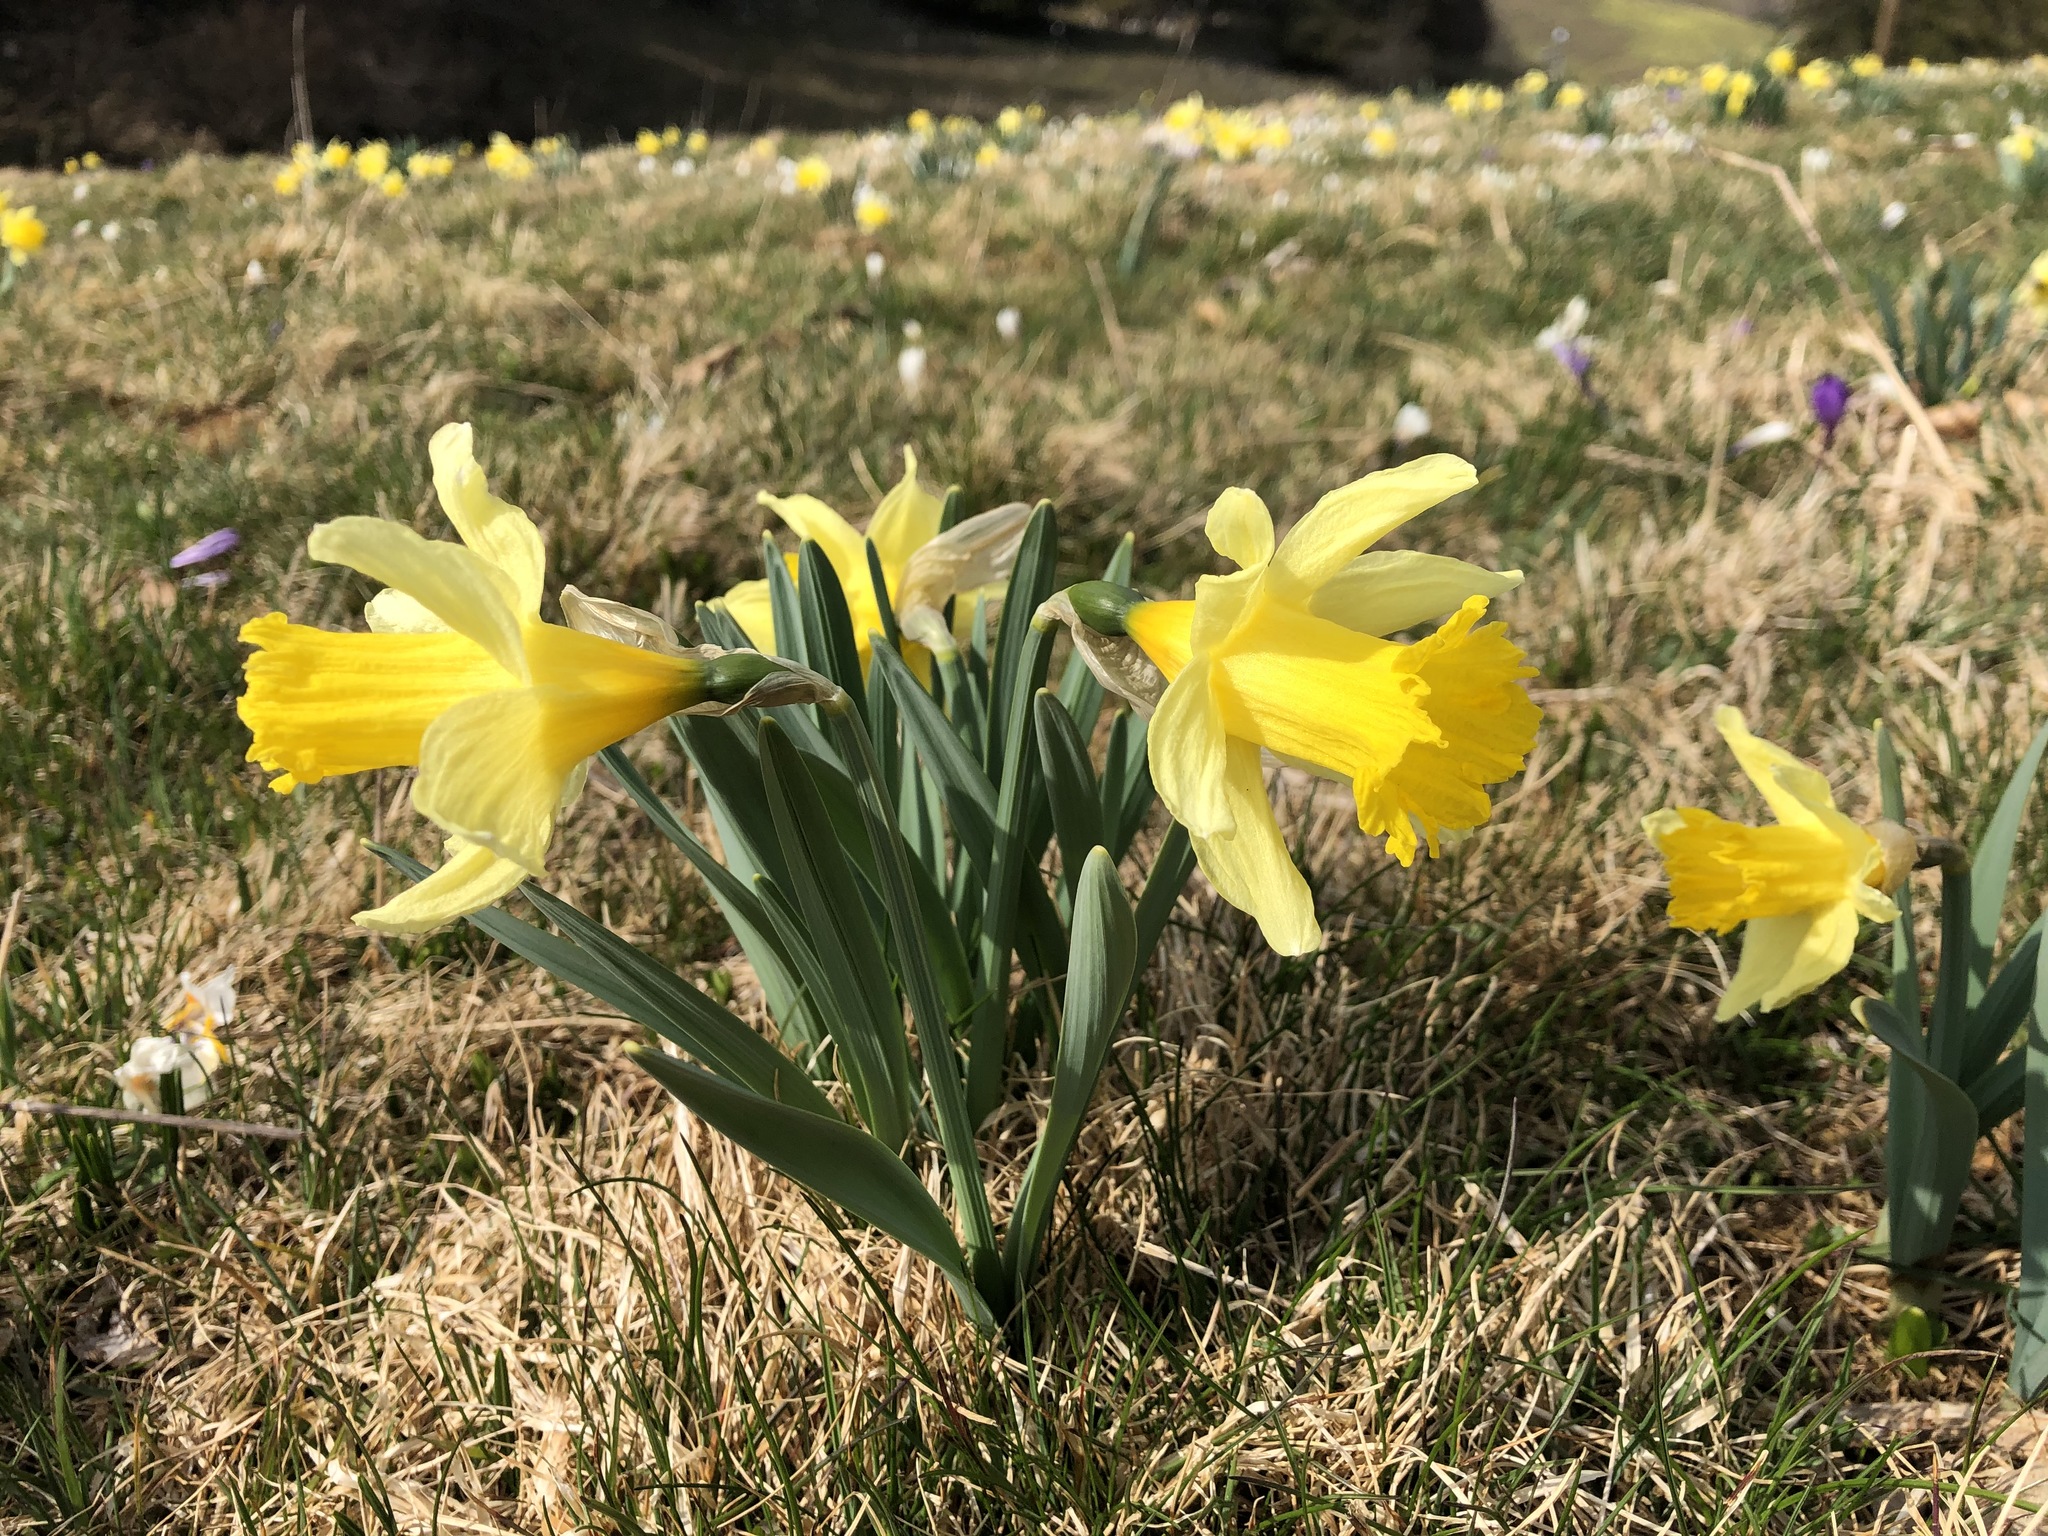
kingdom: Plantae
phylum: Tracheophyta
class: Liliopsida
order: Asparagales
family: Amaryllidaceae
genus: Narcissus
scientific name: Narcissus pseudonarcissus
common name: Daffodil
